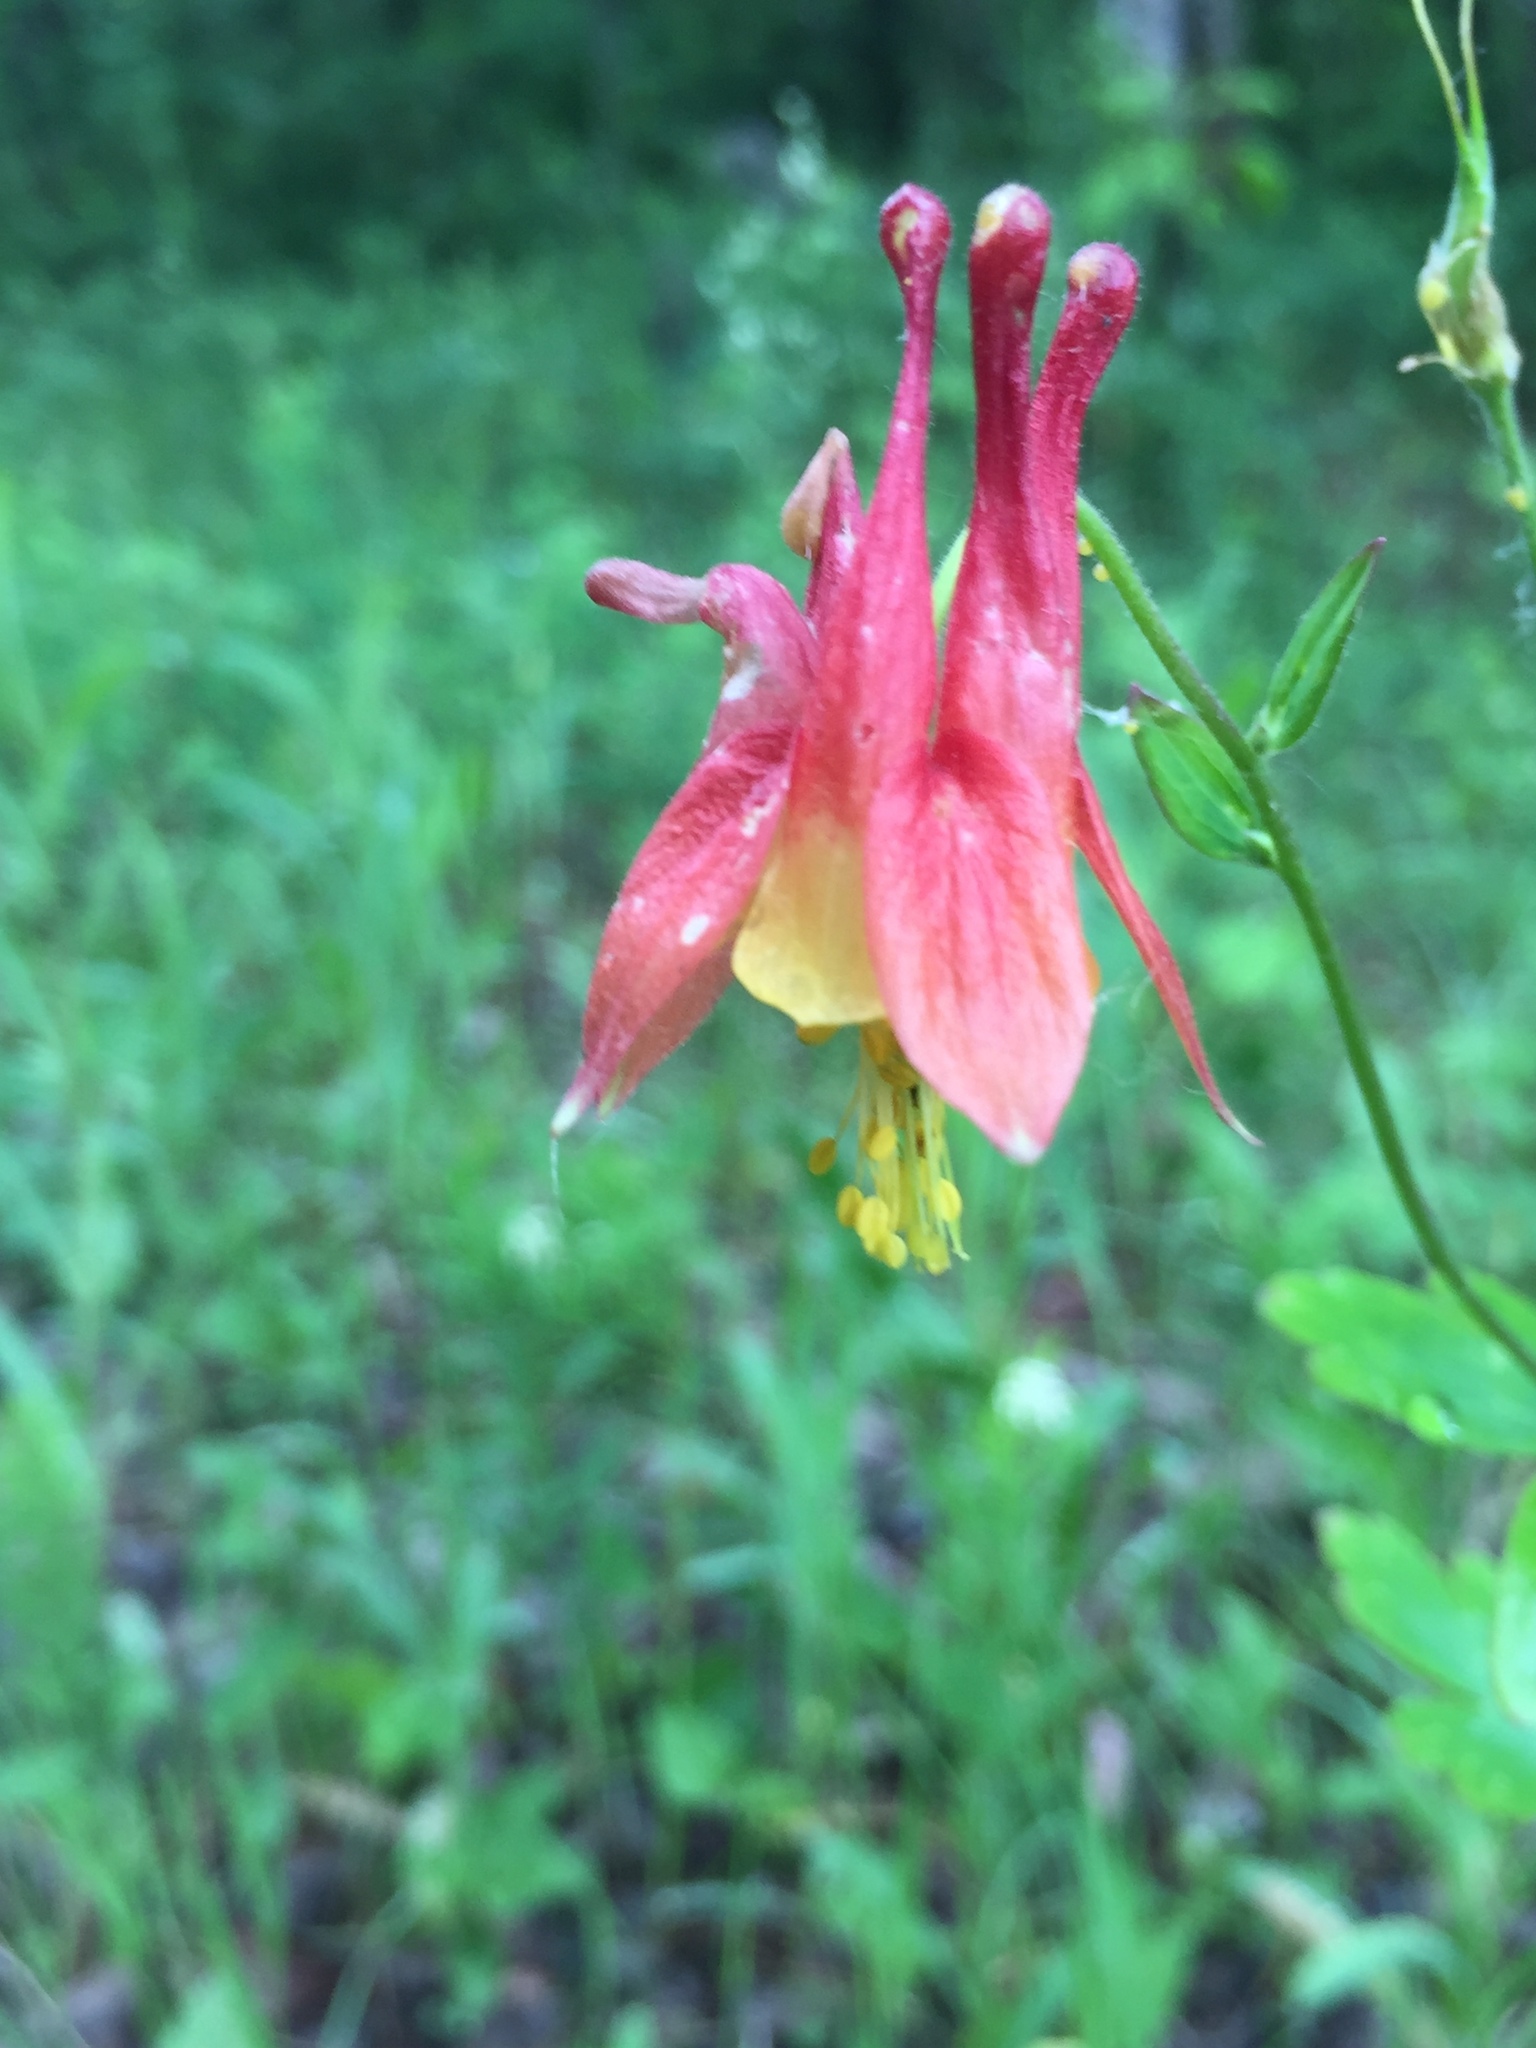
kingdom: Plantae
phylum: Tracheophyta
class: Magnoliopsida
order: Ranunculales
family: Ranunculaceae
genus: Aquilegia
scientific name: Aquilegia canadensis
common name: American columbine
